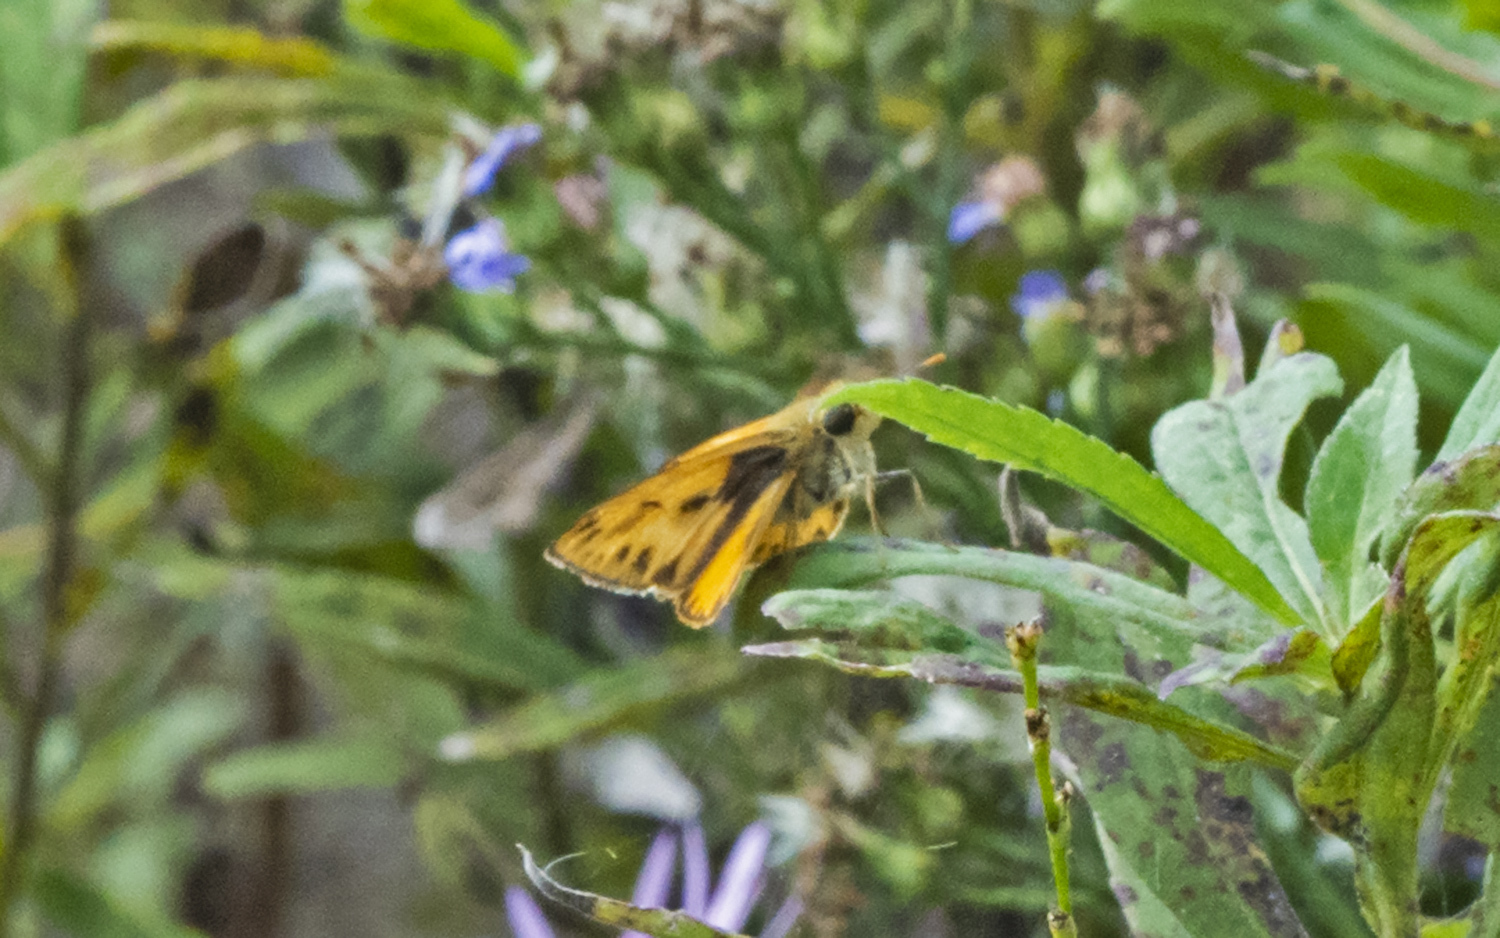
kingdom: Animalia
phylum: Arthropoda
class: Insecta
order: Lepidoptera
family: Hesperiidae
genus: Hylephila
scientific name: Hylephila phyleus
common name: Fiery skipper
